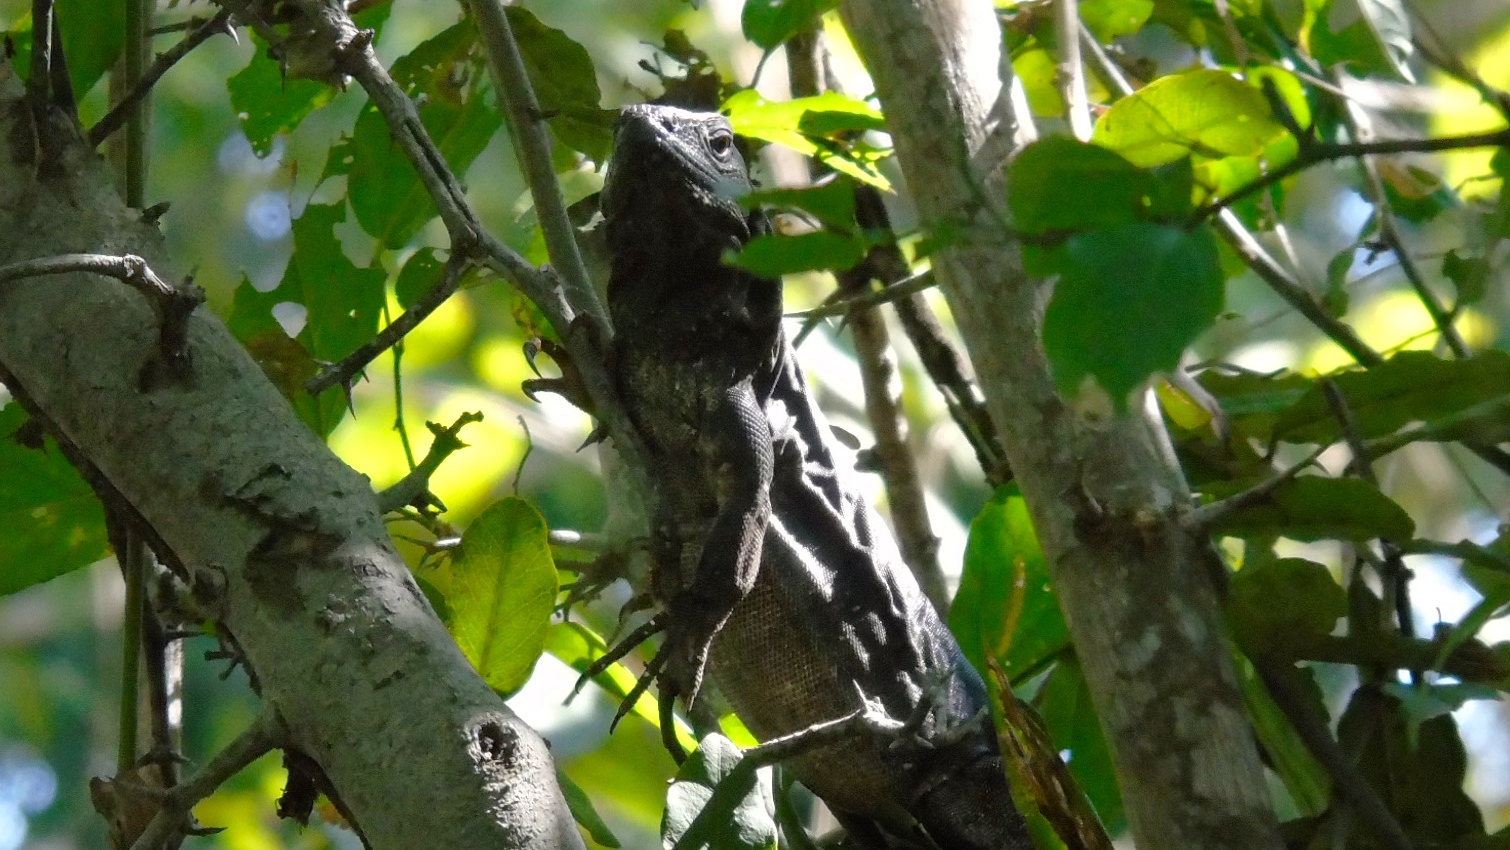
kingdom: Animalia
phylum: Chordata
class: Squamata
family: Iguanidae
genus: Ctenosaura
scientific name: Ctenosaura pectinata
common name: Guerreran spiny-tailed iguana
